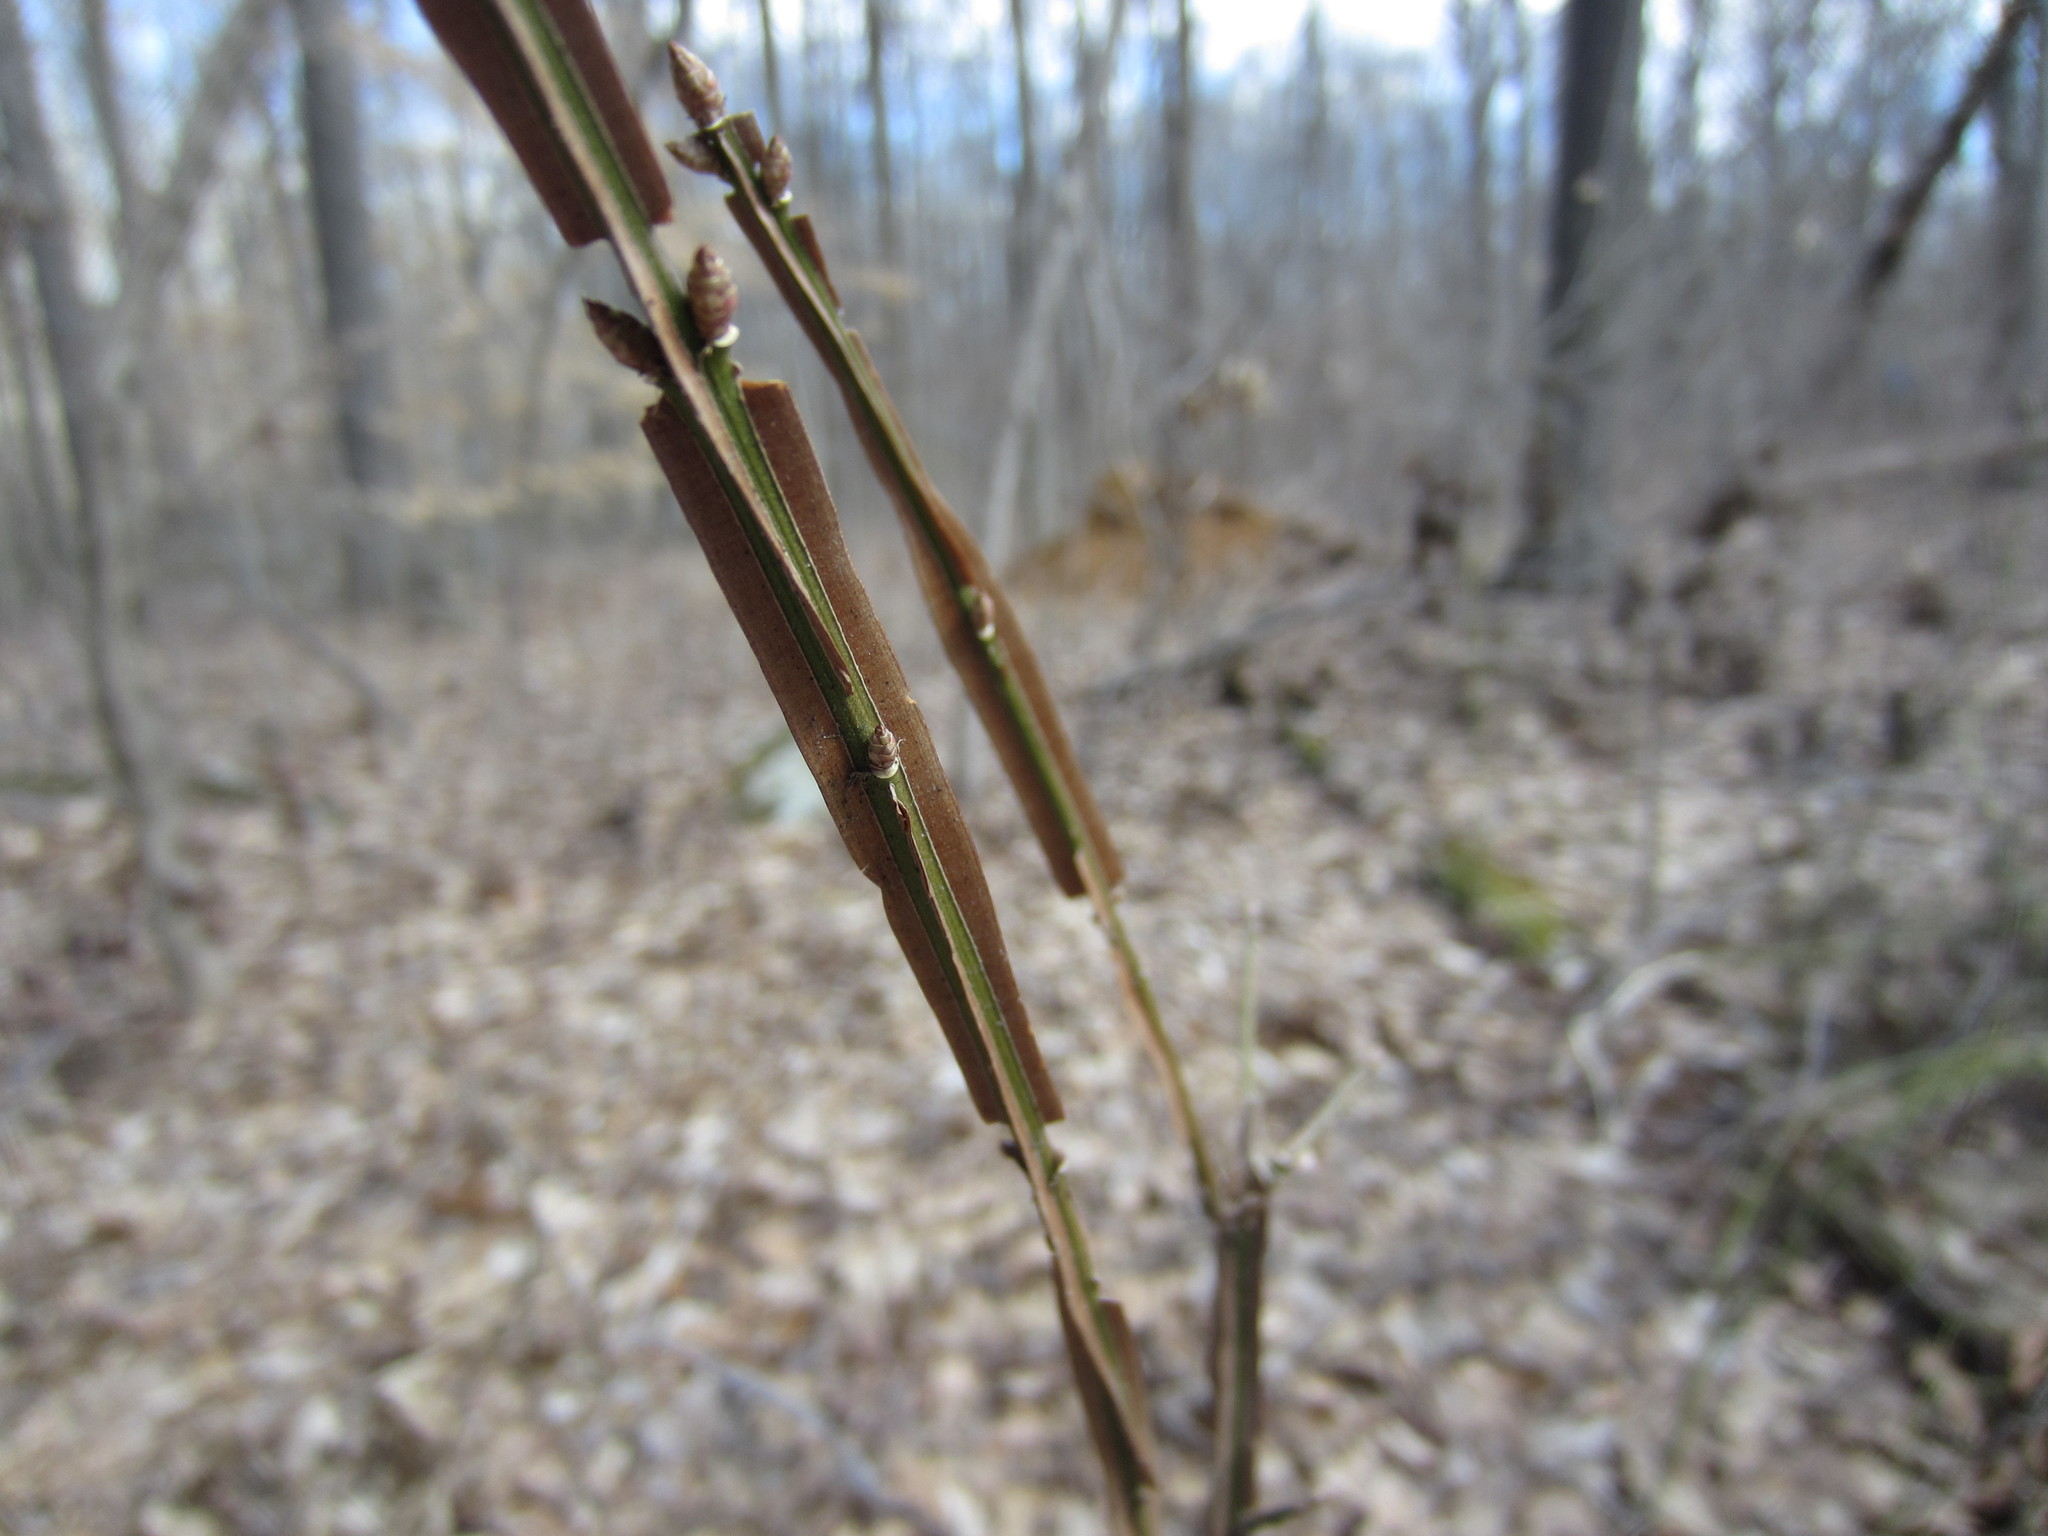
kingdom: Plantae
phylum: Tracheophyta
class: Magnoliopsida
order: Celastrales
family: Celastraceae
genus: Euonymus
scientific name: Euonymus alatus
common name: Winged euonymus
